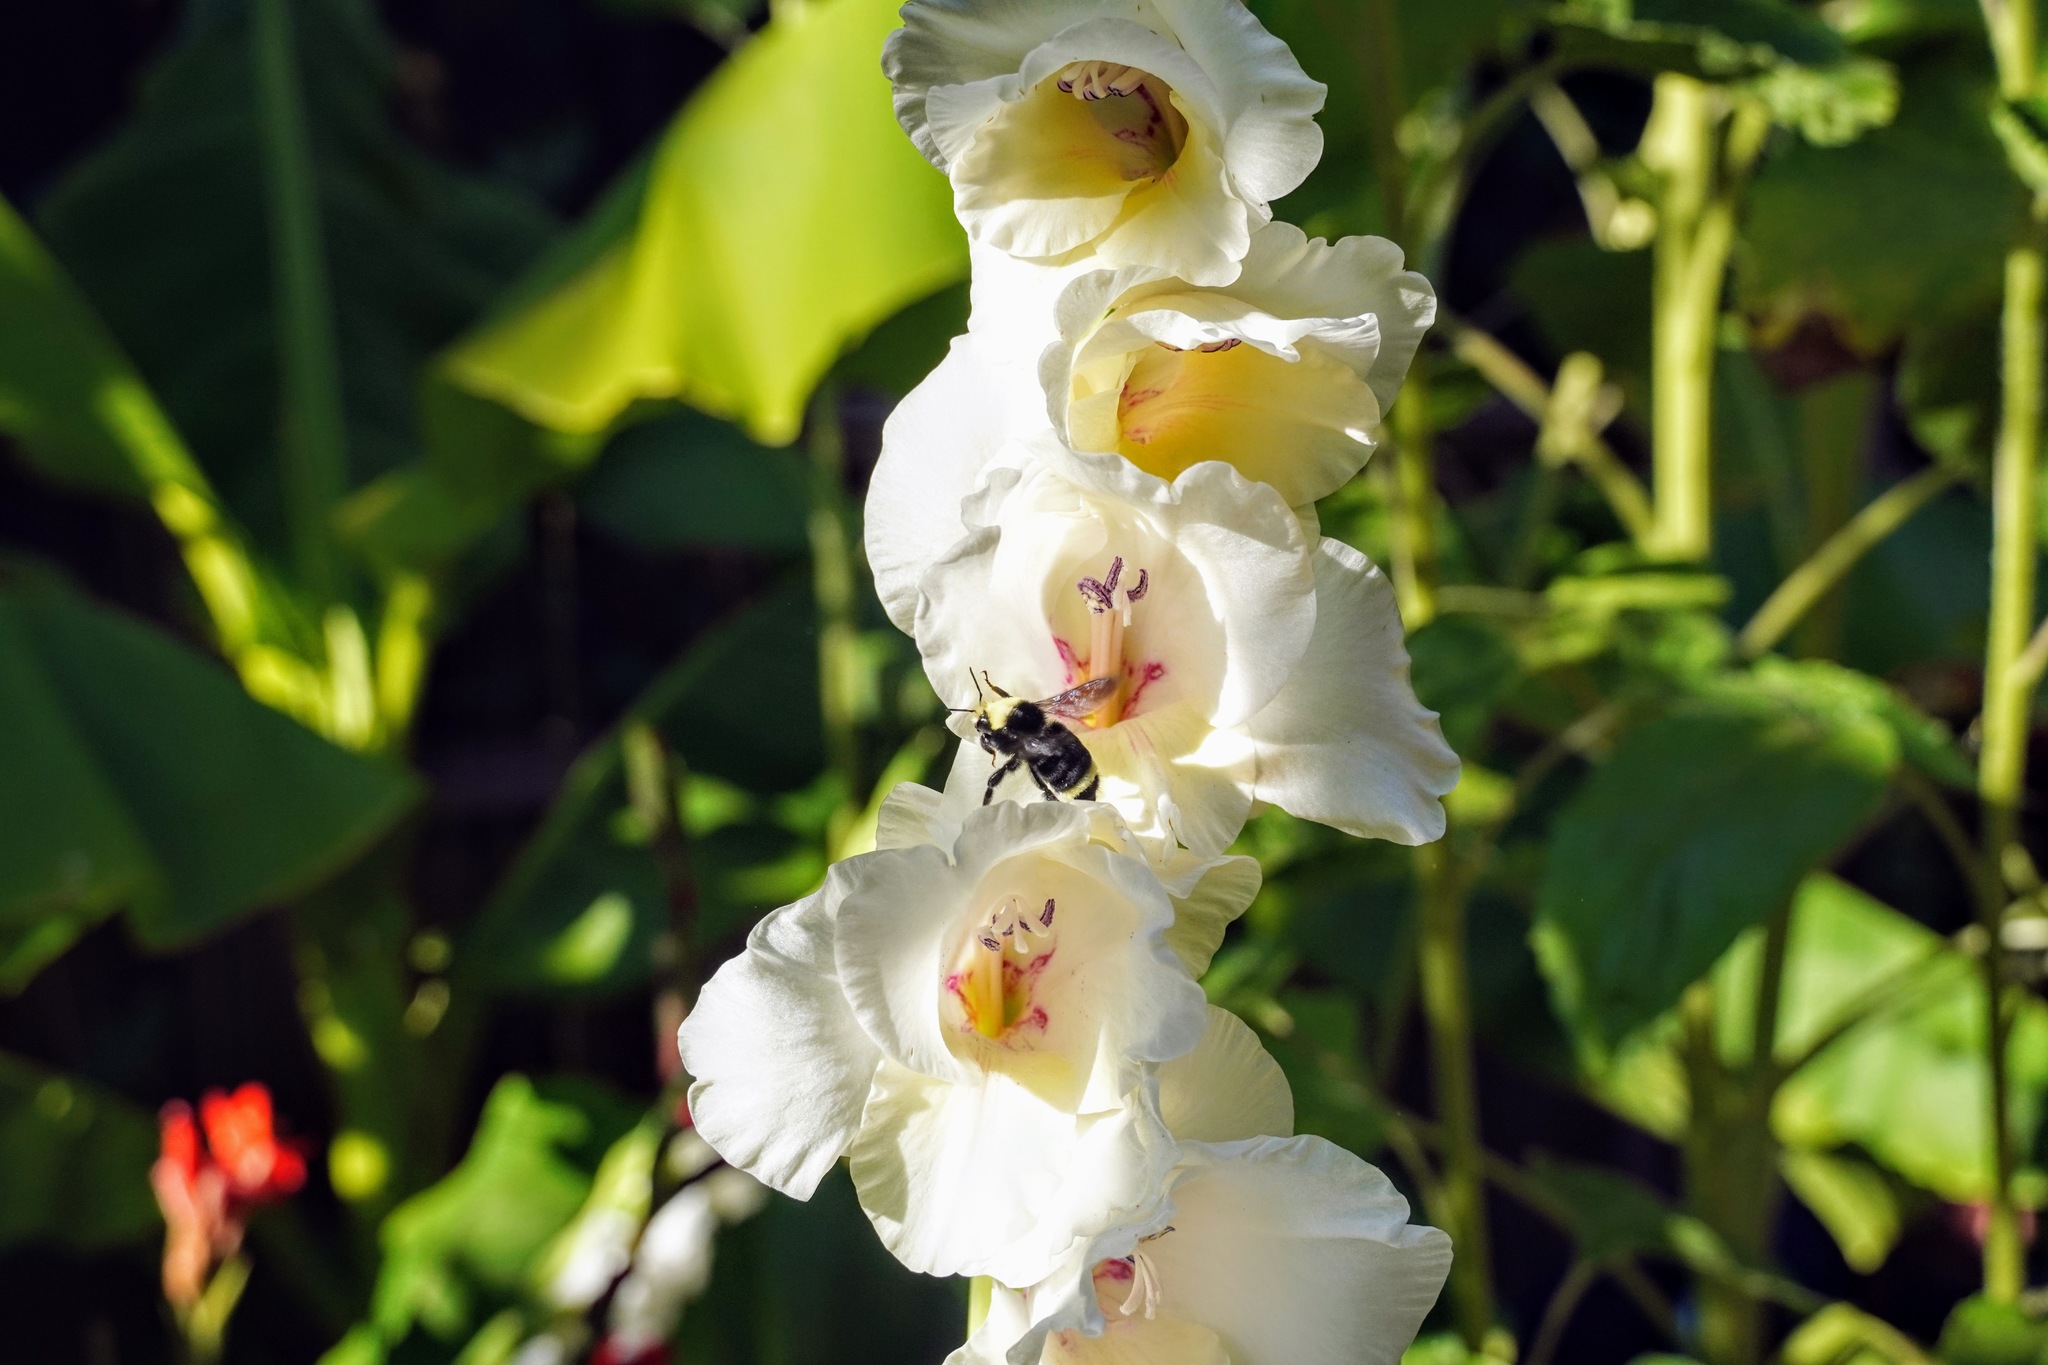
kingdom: Animalia
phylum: Arthropoda
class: Insecta
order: Hymenoptera
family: Apidae
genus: Bombus
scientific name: Bombus vosnesenskii
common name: Vosnesensky bumble bee
